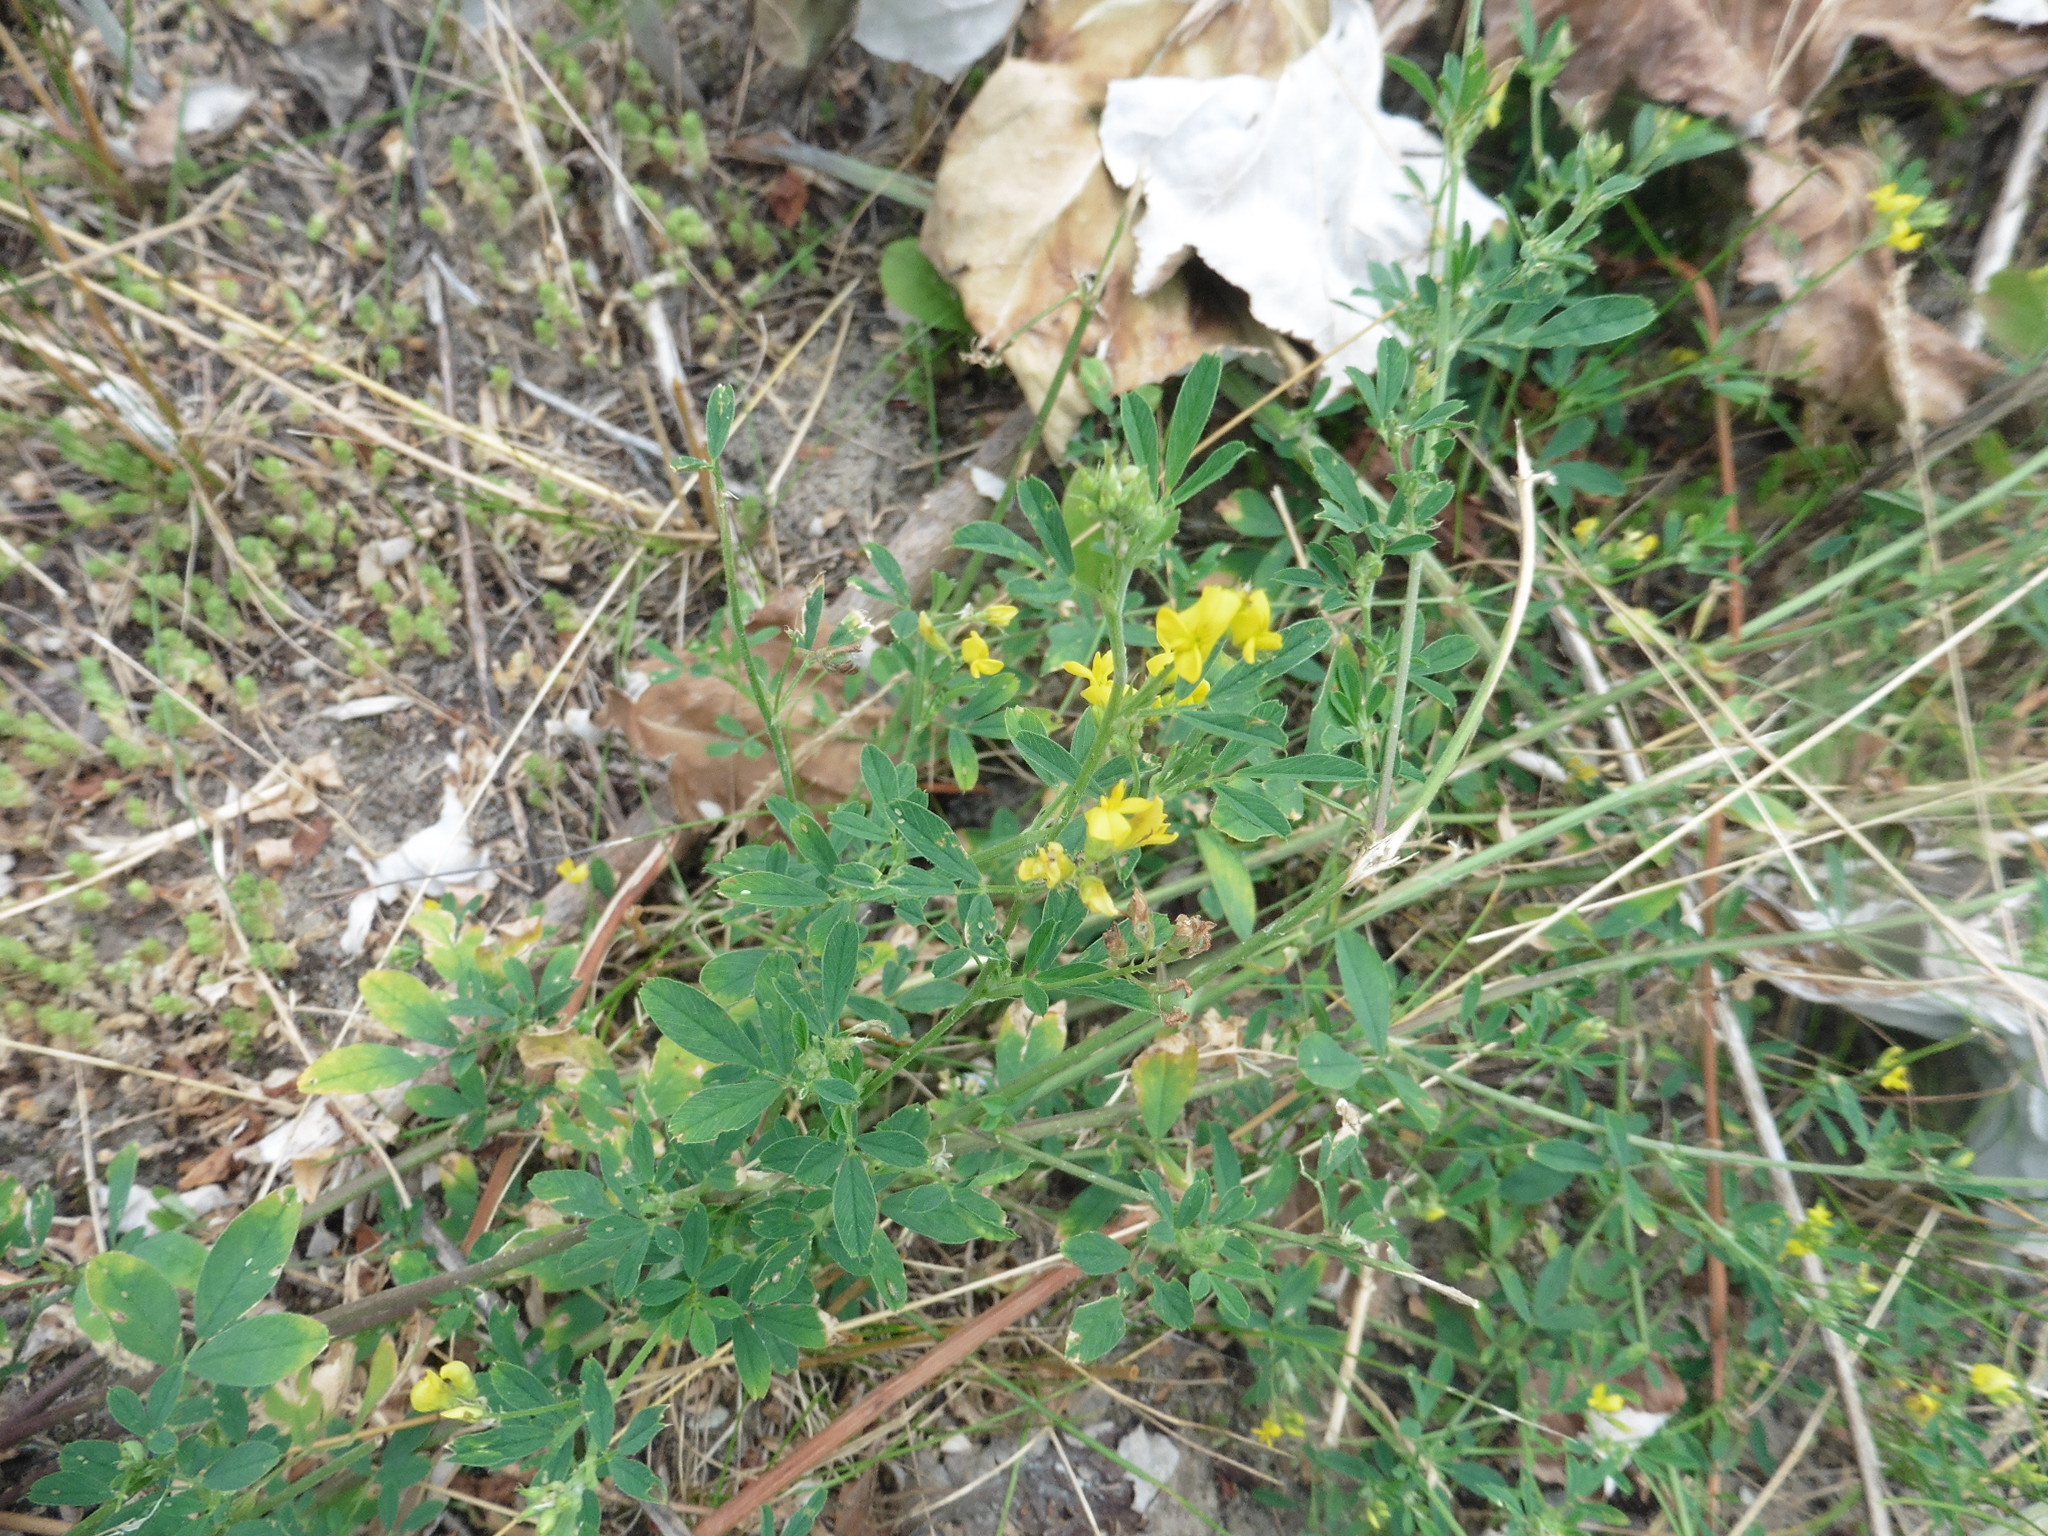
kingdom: Plantae
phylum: Tracheophyta
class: Magnoliopsida
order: Fabales
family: Fabaceae
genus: Medicago
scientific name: Medicago falcata
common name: Sickle medick
